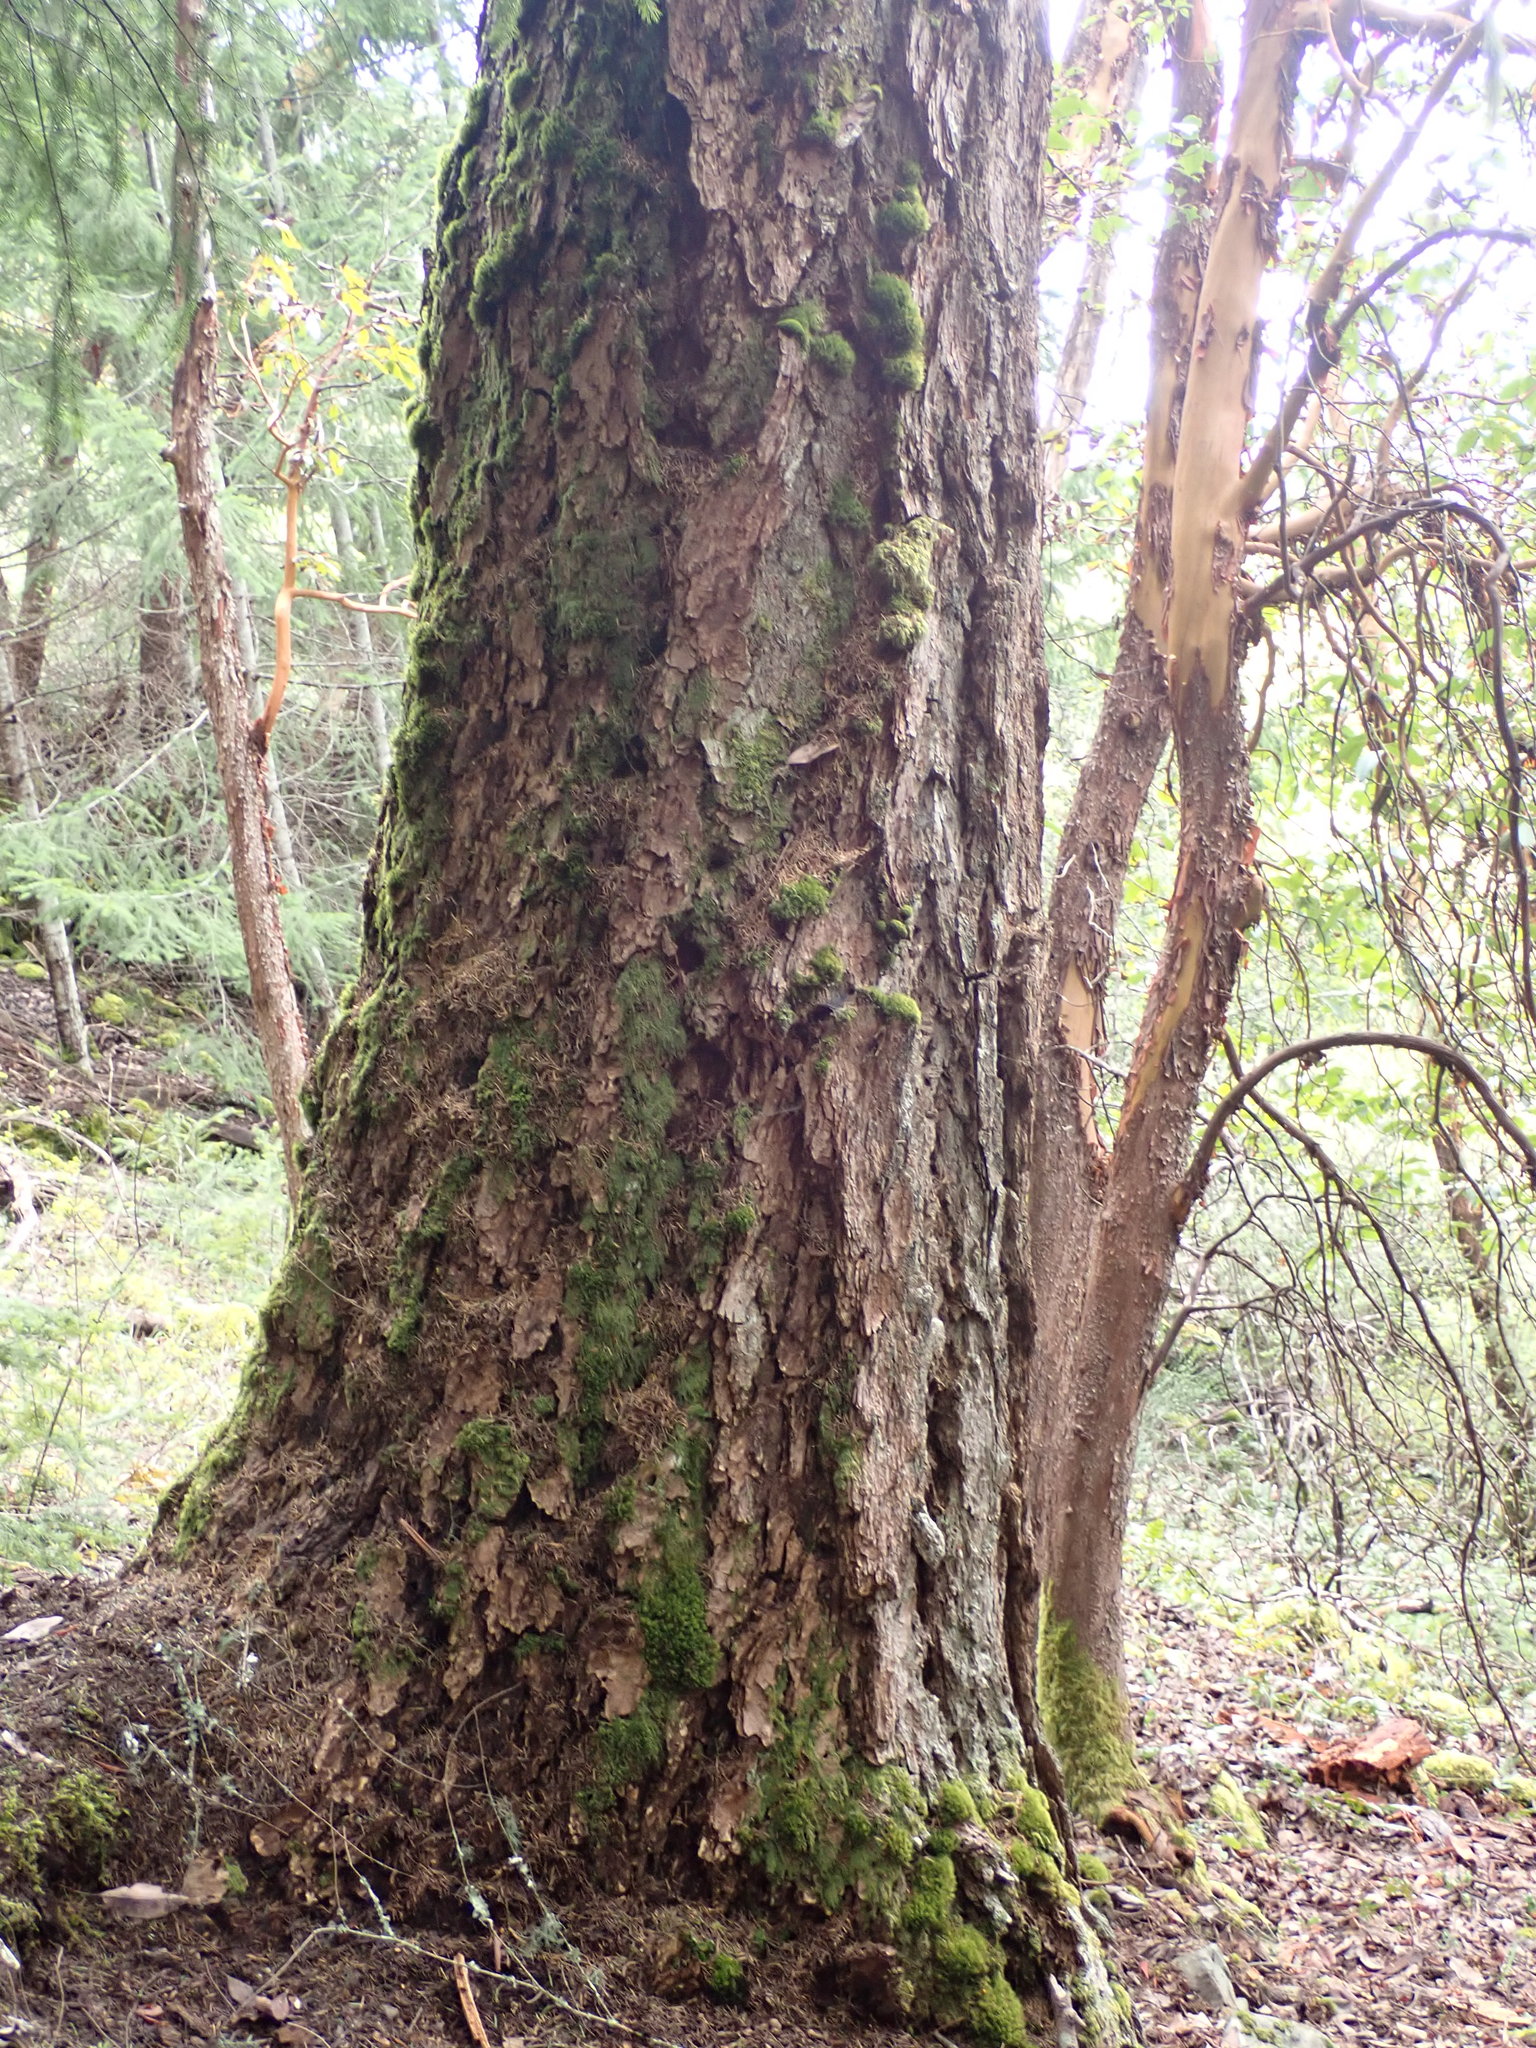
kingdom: Plantae
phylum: Tracheophyta
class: Pinopsida
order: Pinales
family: Pinaceae
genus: Pseudotsuga
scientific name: Pseudotsuga menziesii
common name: Douglas fir
